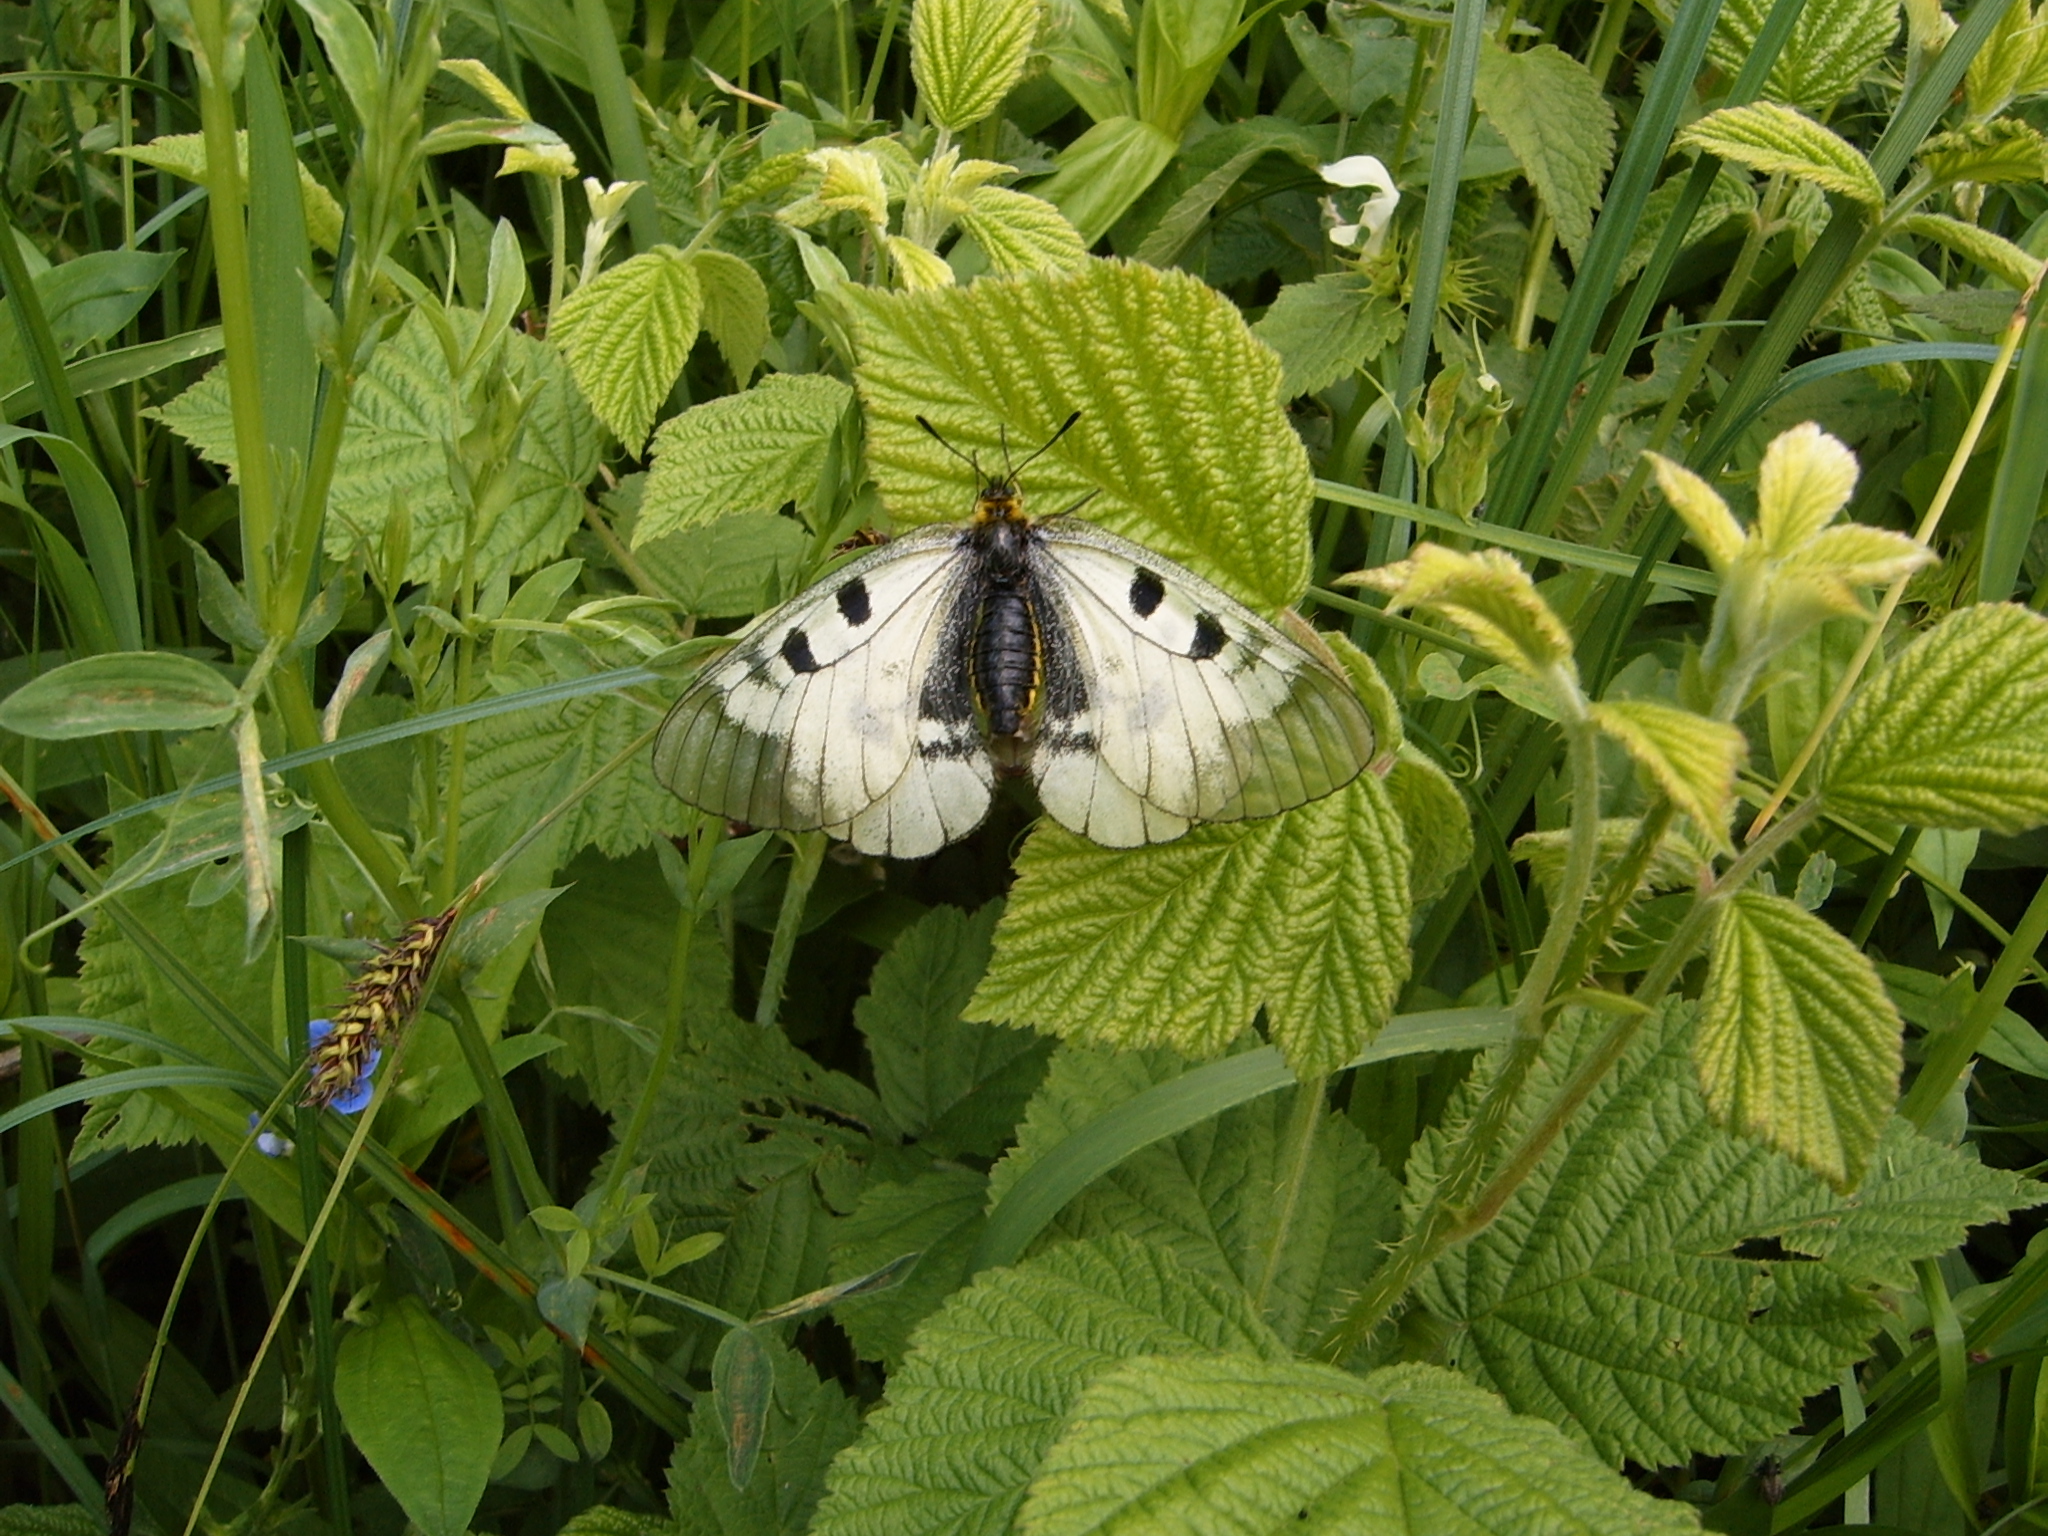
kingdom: Animalia
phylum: Arthropoda
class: Insecta
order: Lepidoptera
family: Papilionidae
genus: Parnassius
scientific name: Parnassius mnemosyne
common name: Clouded apollo
